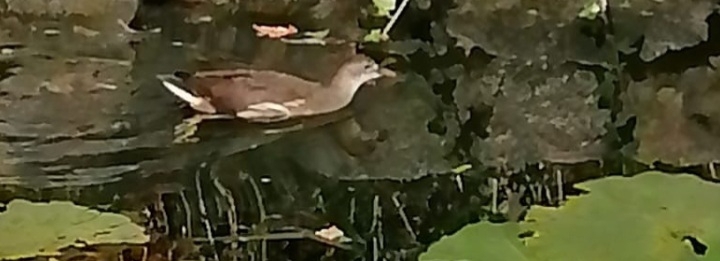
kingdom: Animalia
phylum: Chordata
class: Aves
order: Gruiformes
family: Rallidae
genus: Gallinula
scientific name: Gallinula chloropus
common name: Common moorhen
